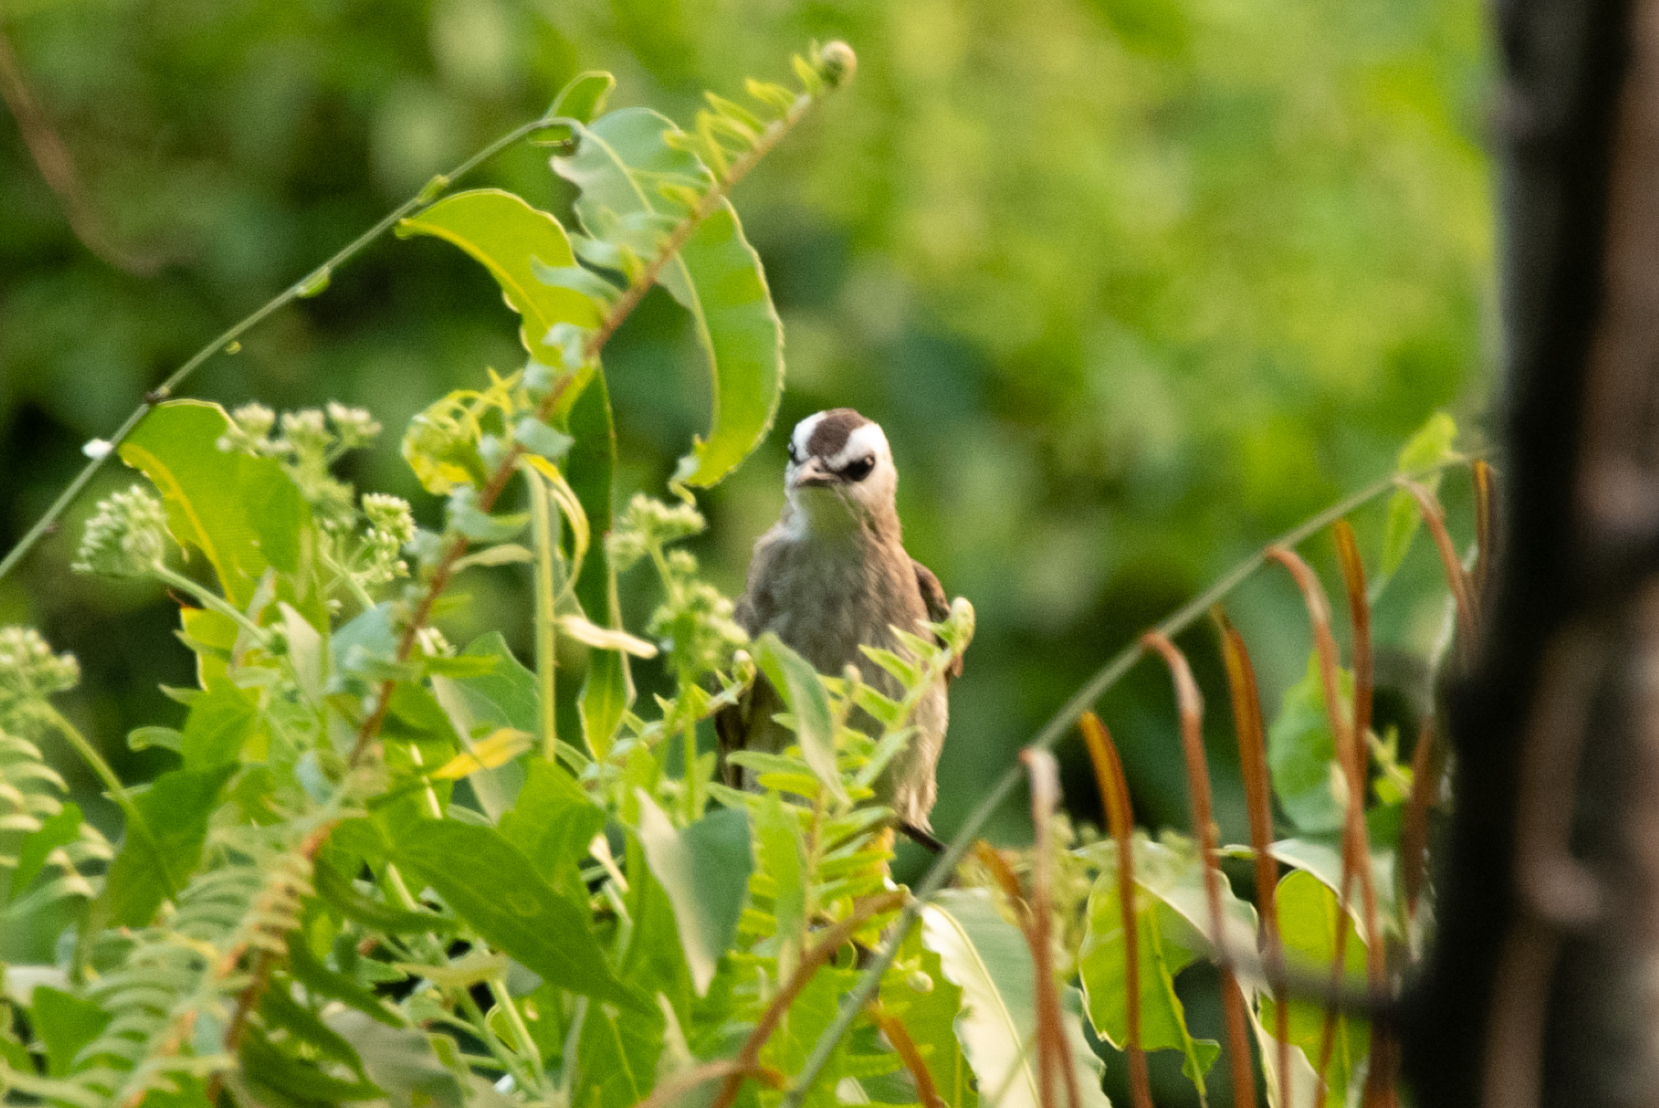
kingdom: Animalia
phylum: Chordata
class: Aves
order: Passeriformes
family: Pycnonotidae
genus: Pycnonotus
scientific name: Pycnonotus goiavier
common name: Yellow-vented bulbul
